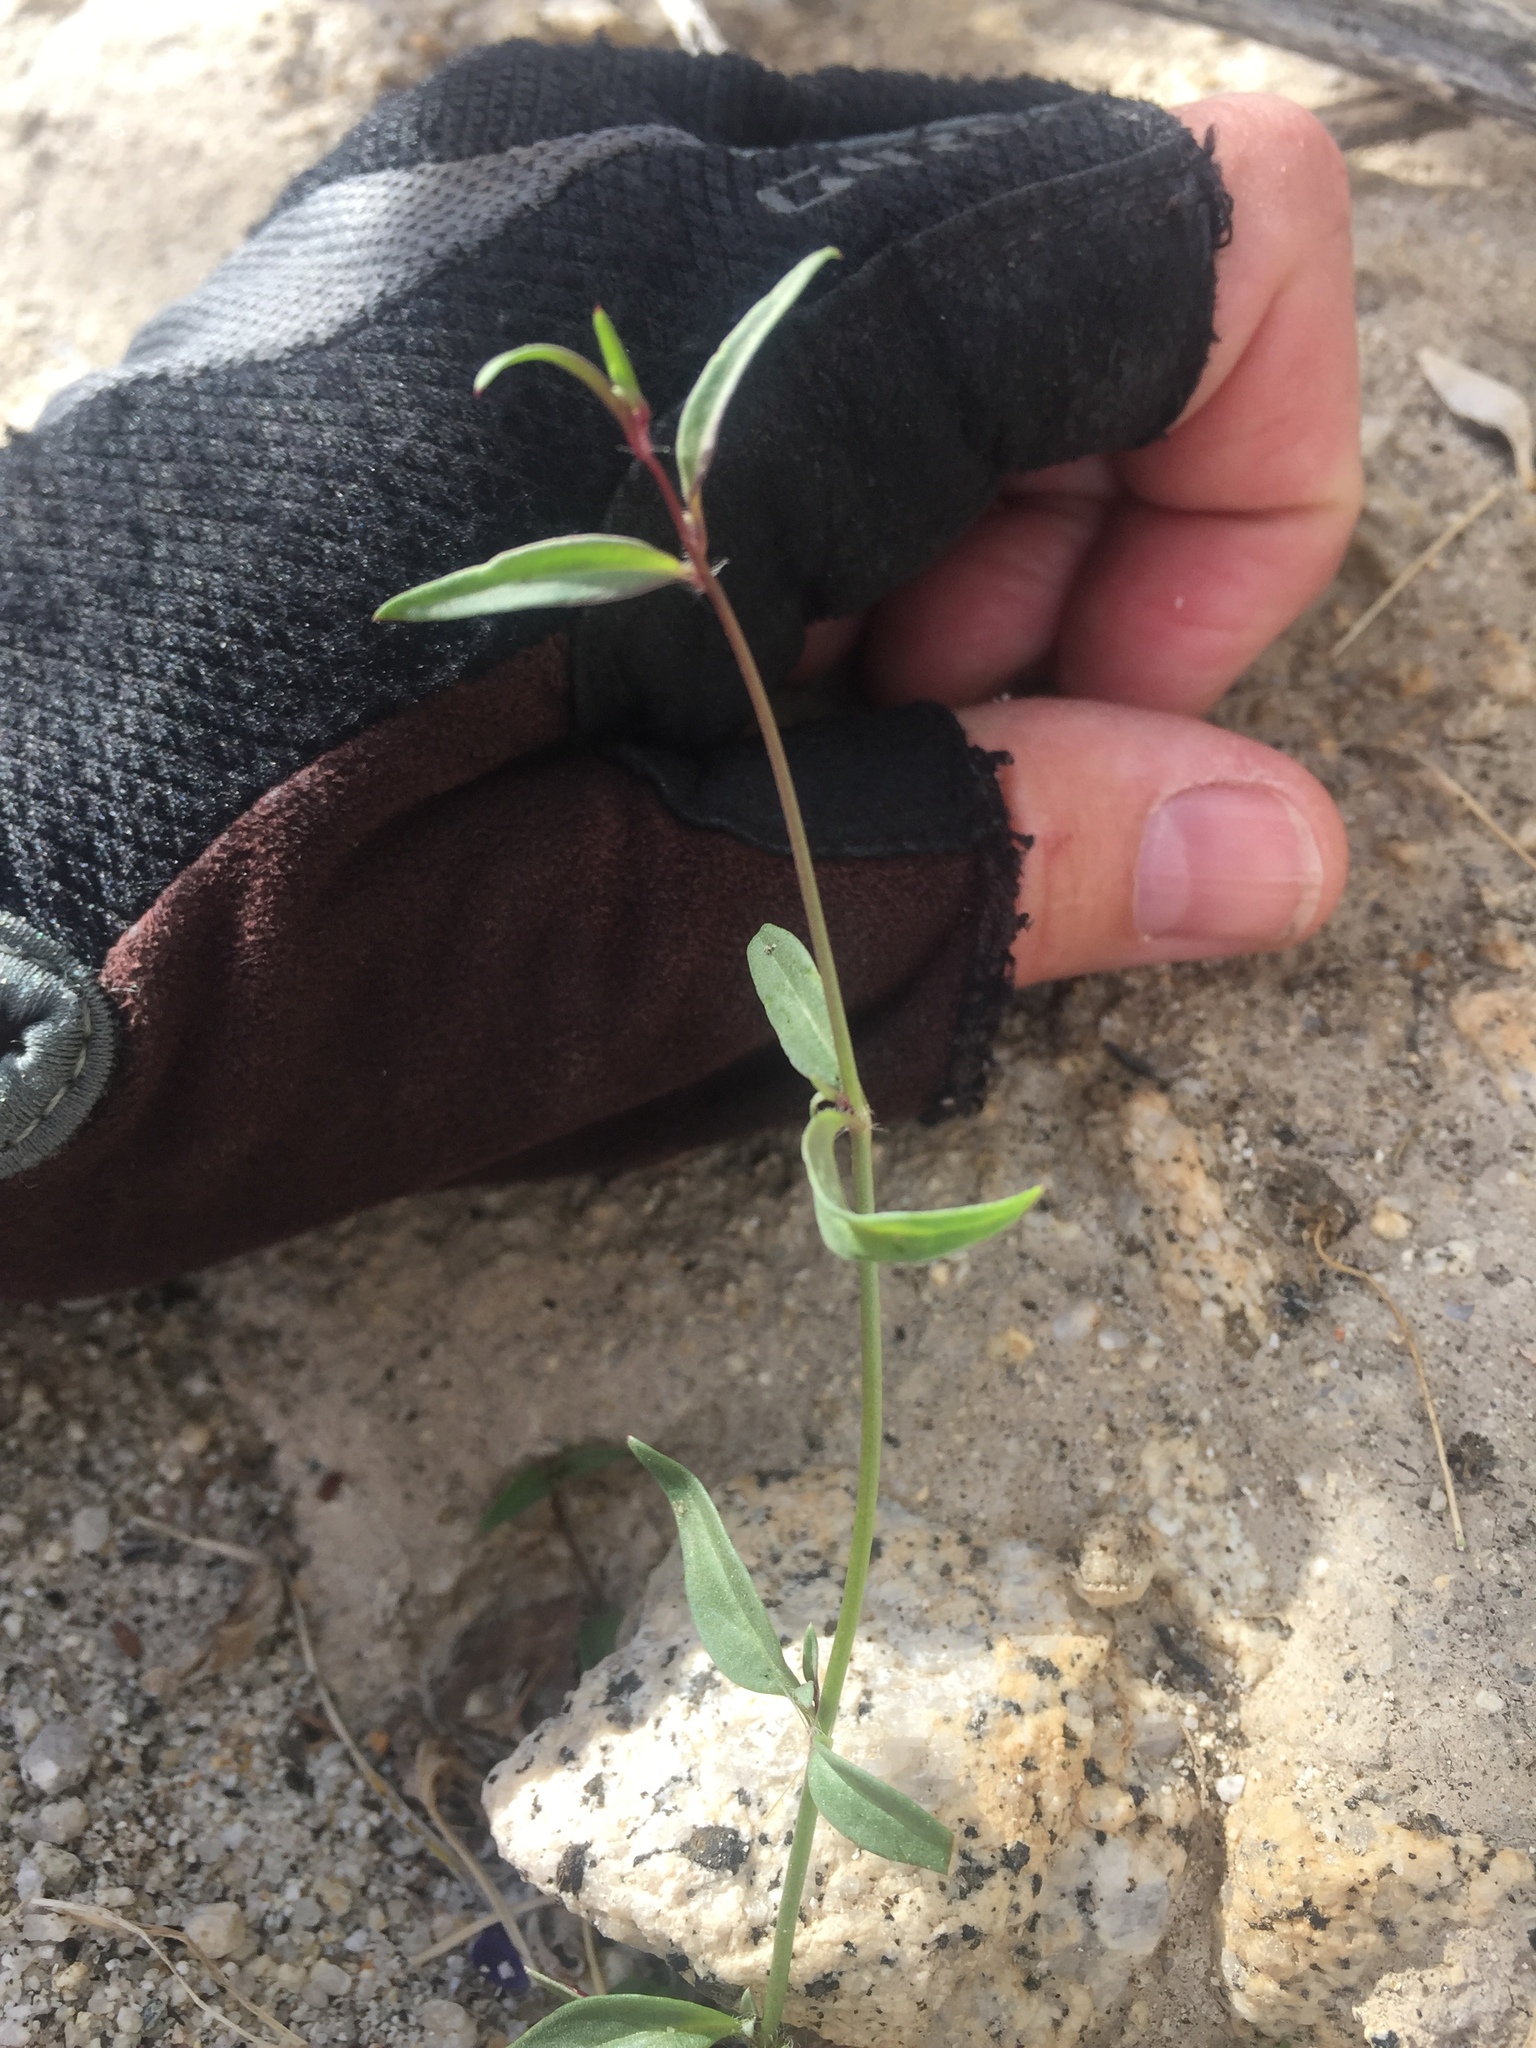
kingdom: Plantae
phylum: Tracheophyta
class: Magnoliopsida
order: Lamiales
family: Plantaginaceae
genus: Neogaerrhinum
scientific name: Neogaerrhinum filipes
